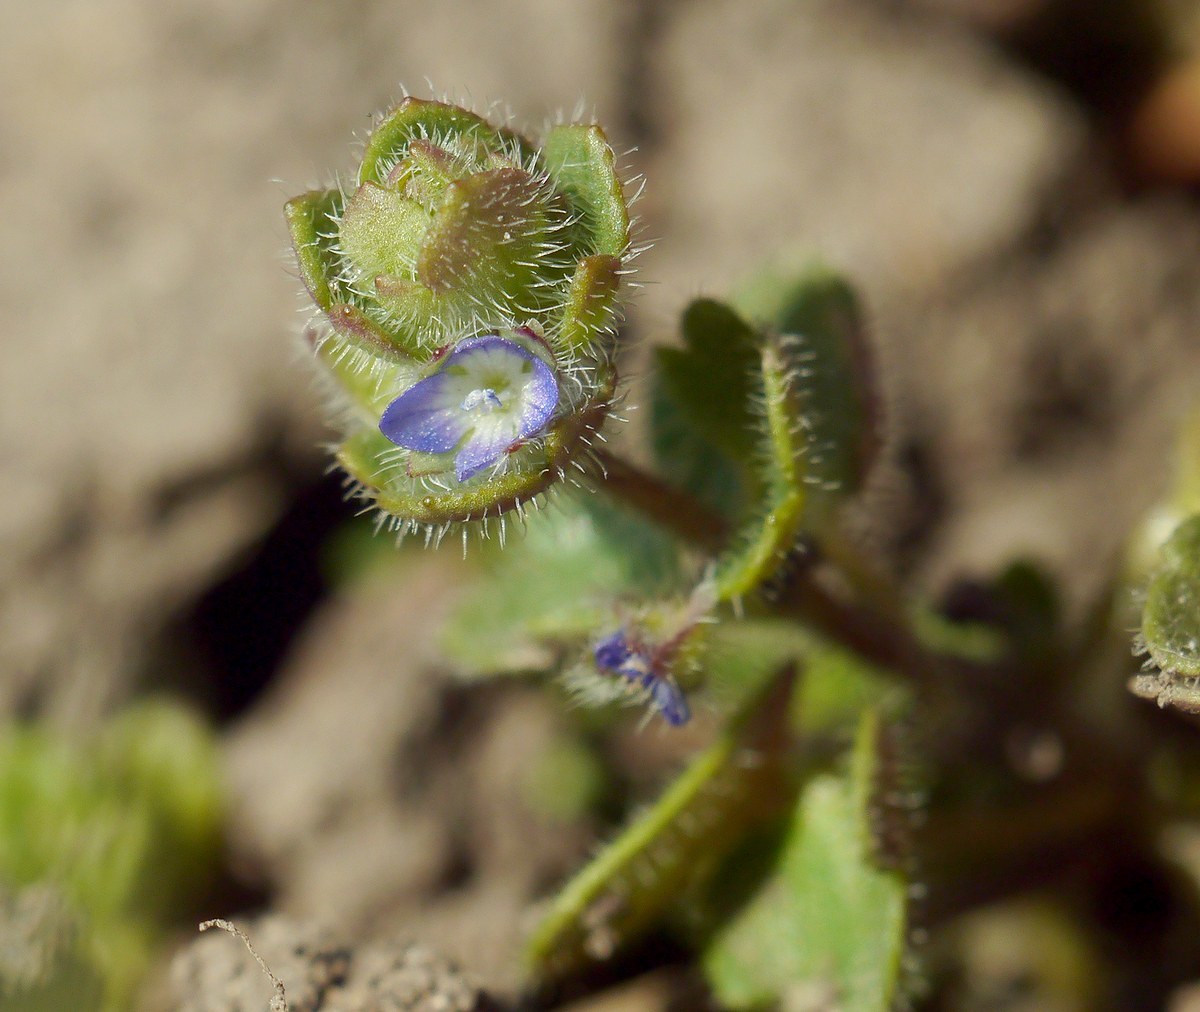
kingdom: Plantae
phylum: Tracheophyta
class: Magnoliopsida
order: Lamiales
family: Plantaginaceae
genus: Veronica
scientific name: Veronica hederifolia
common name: Ivy-leaved speedwell
